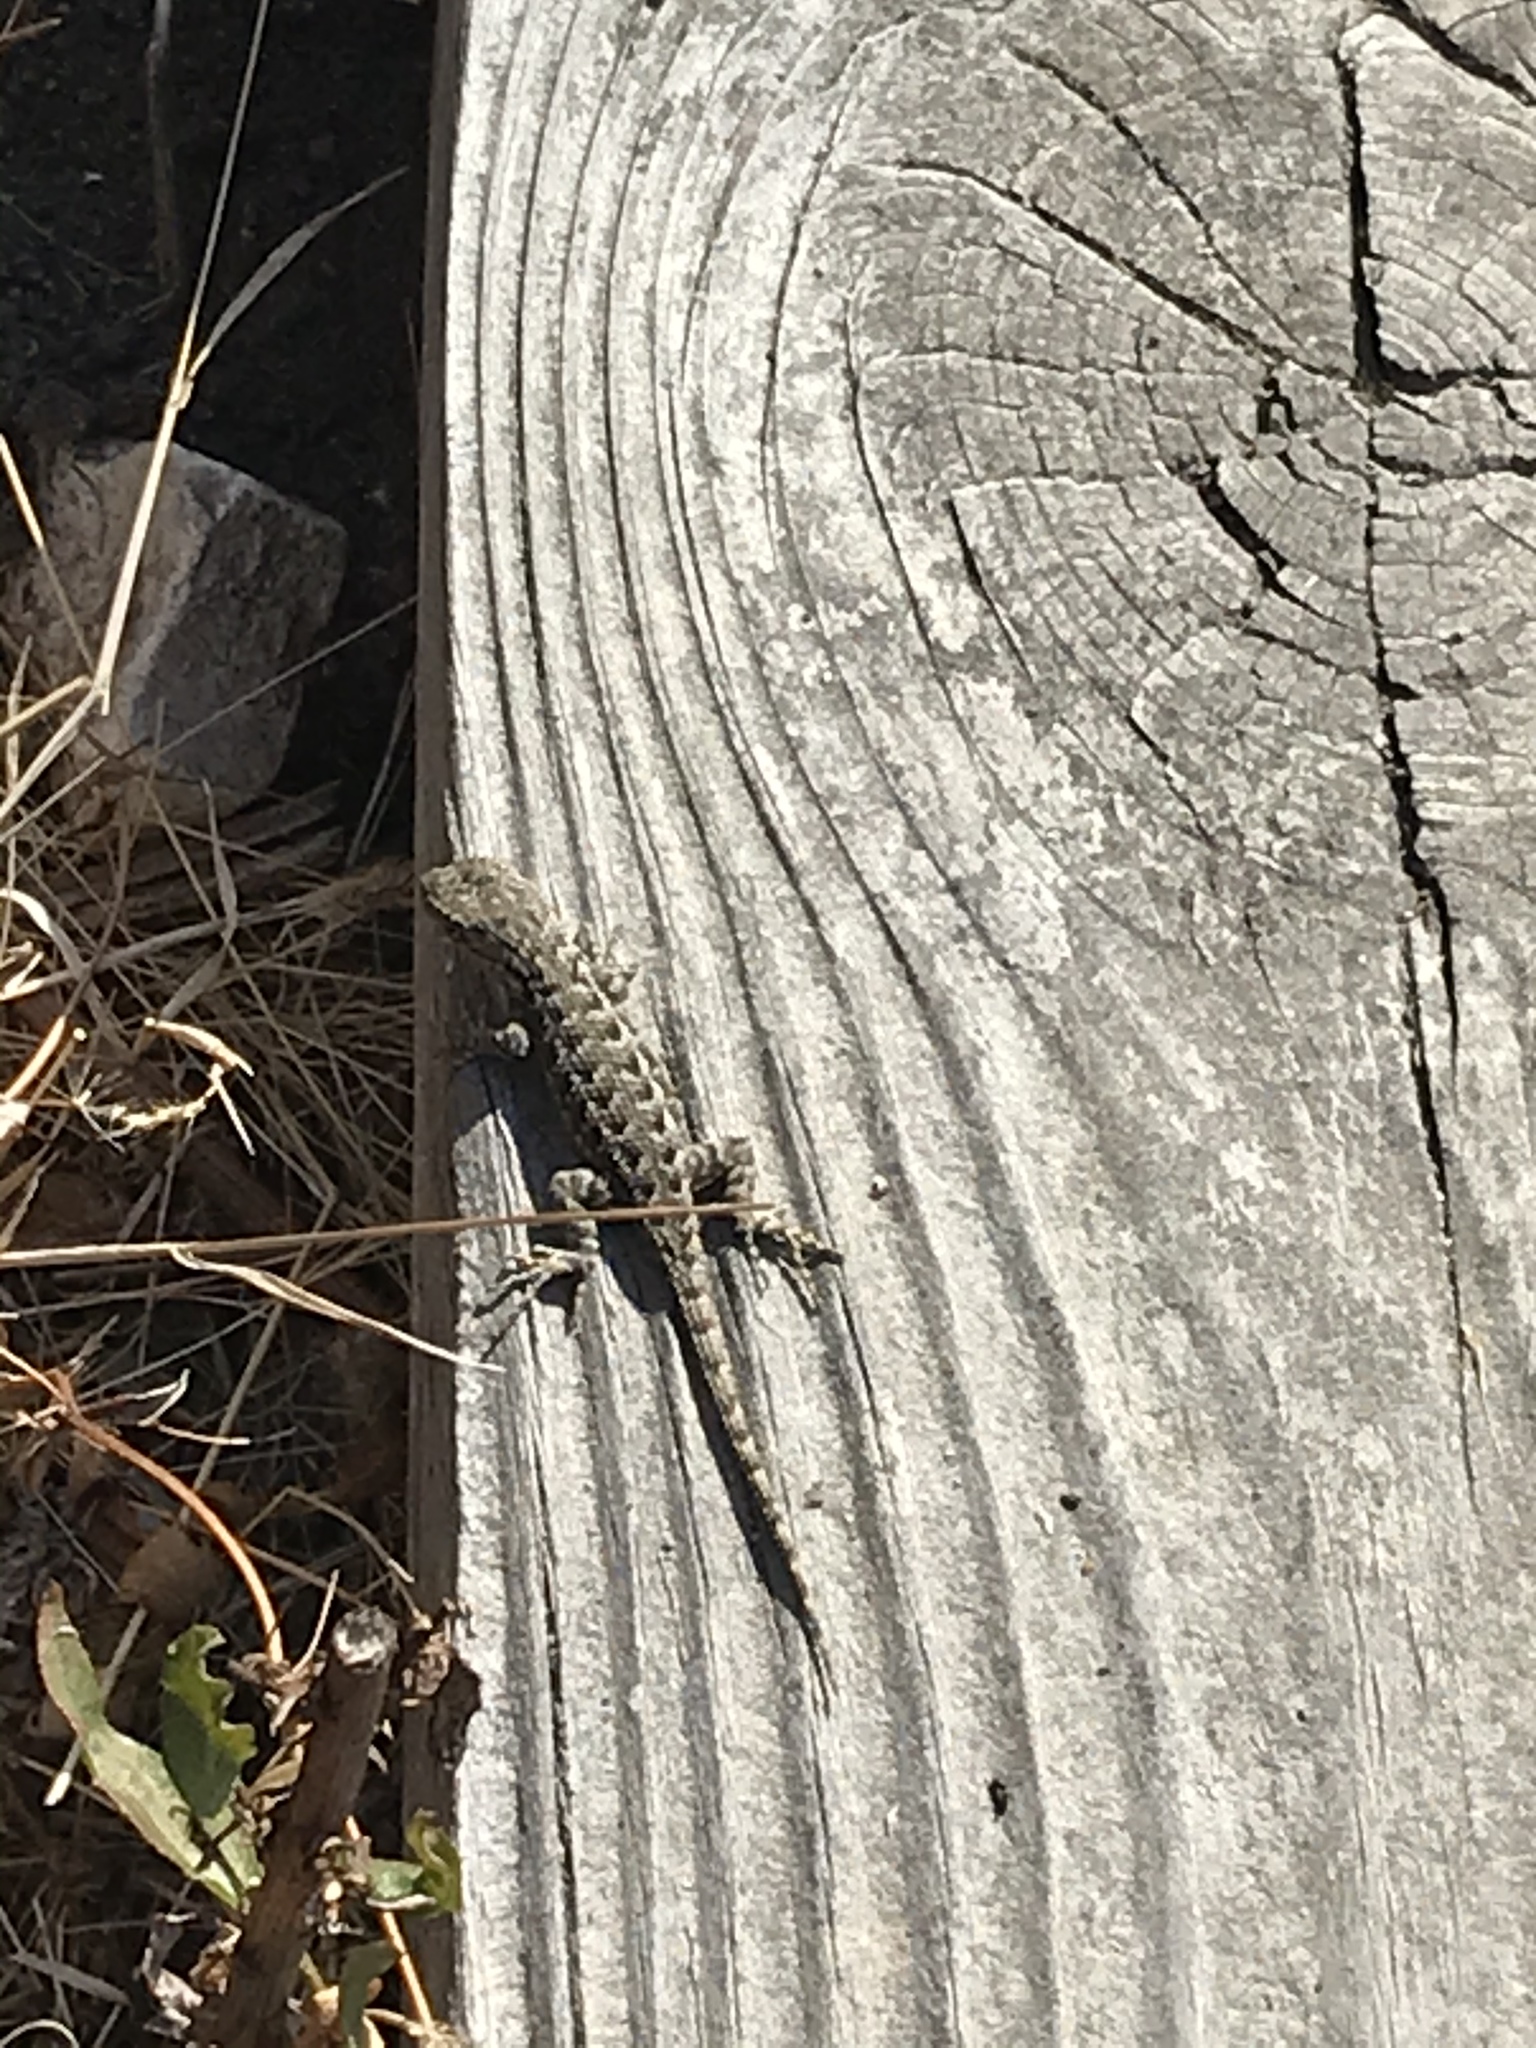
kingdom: Animalia
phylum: Chordata
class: Squamata
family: Phrynosomatidae
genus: Sceloporus
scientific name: Sceloporus occidentalis
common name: Western fence lizard
